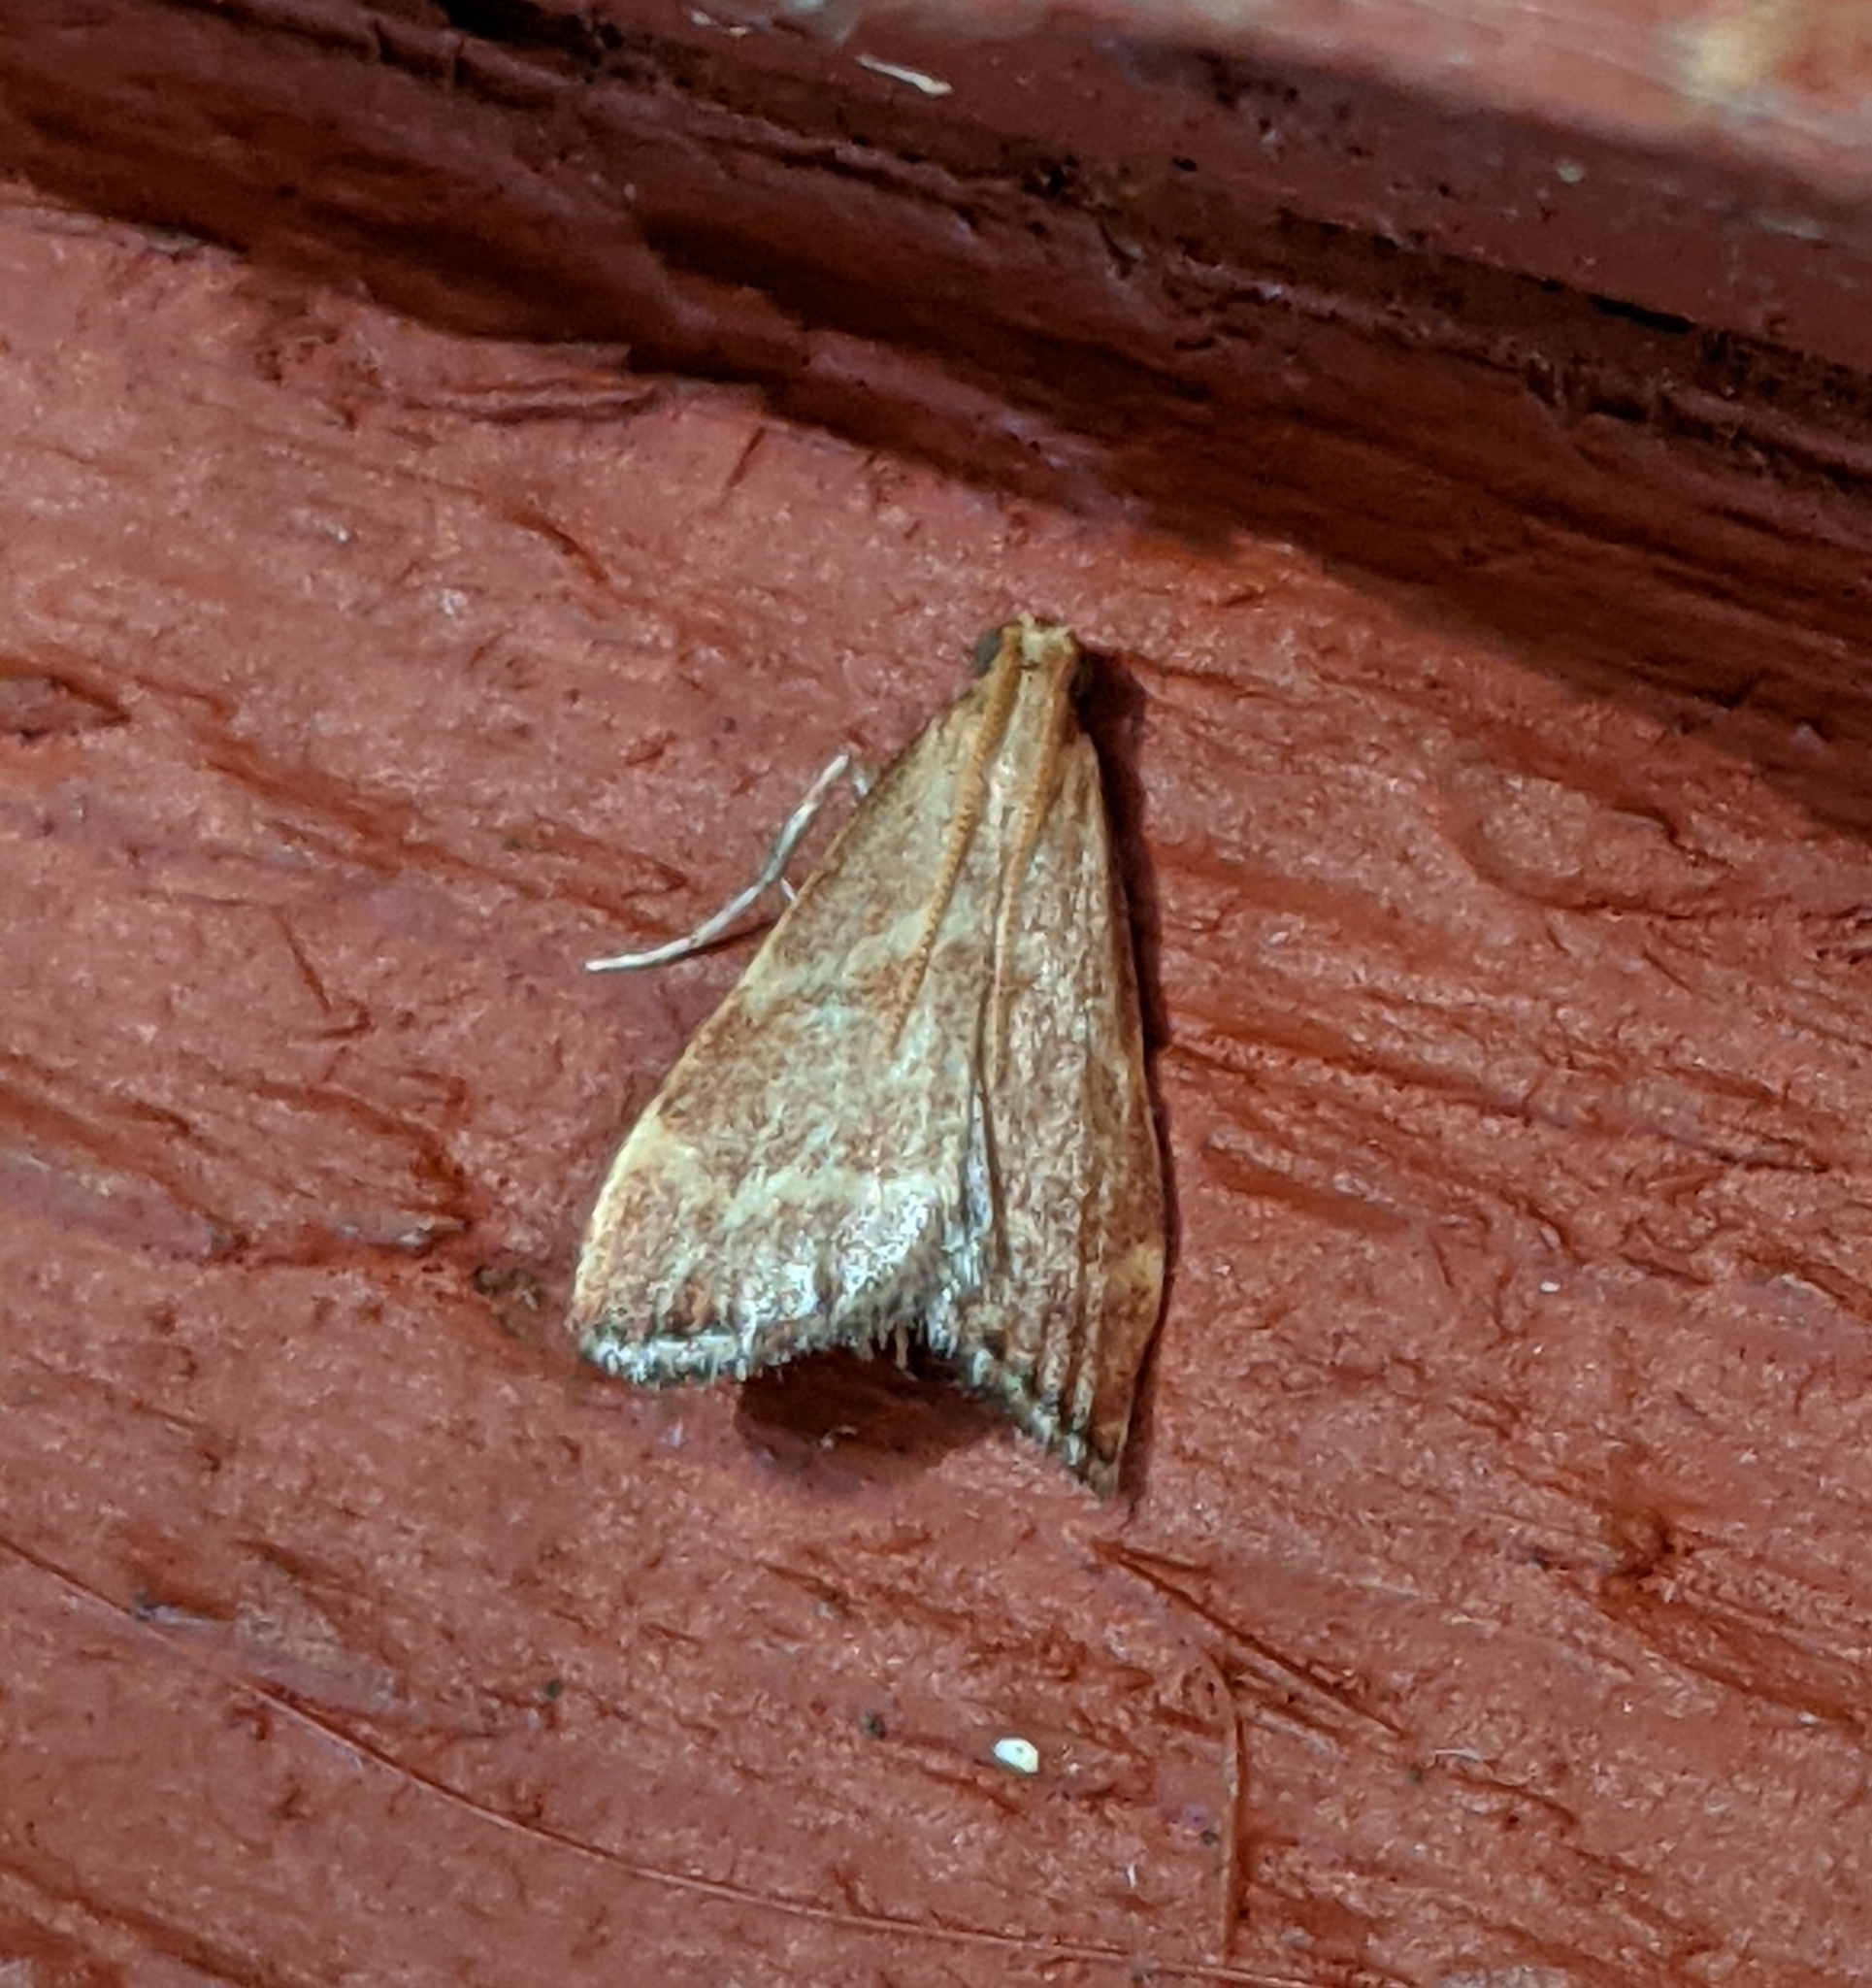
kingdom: Animalia
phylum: Arthropoda
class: Insecta
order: Lepidoptera
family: Pyralidae
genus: Arta
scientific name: Arta epicoenalis
